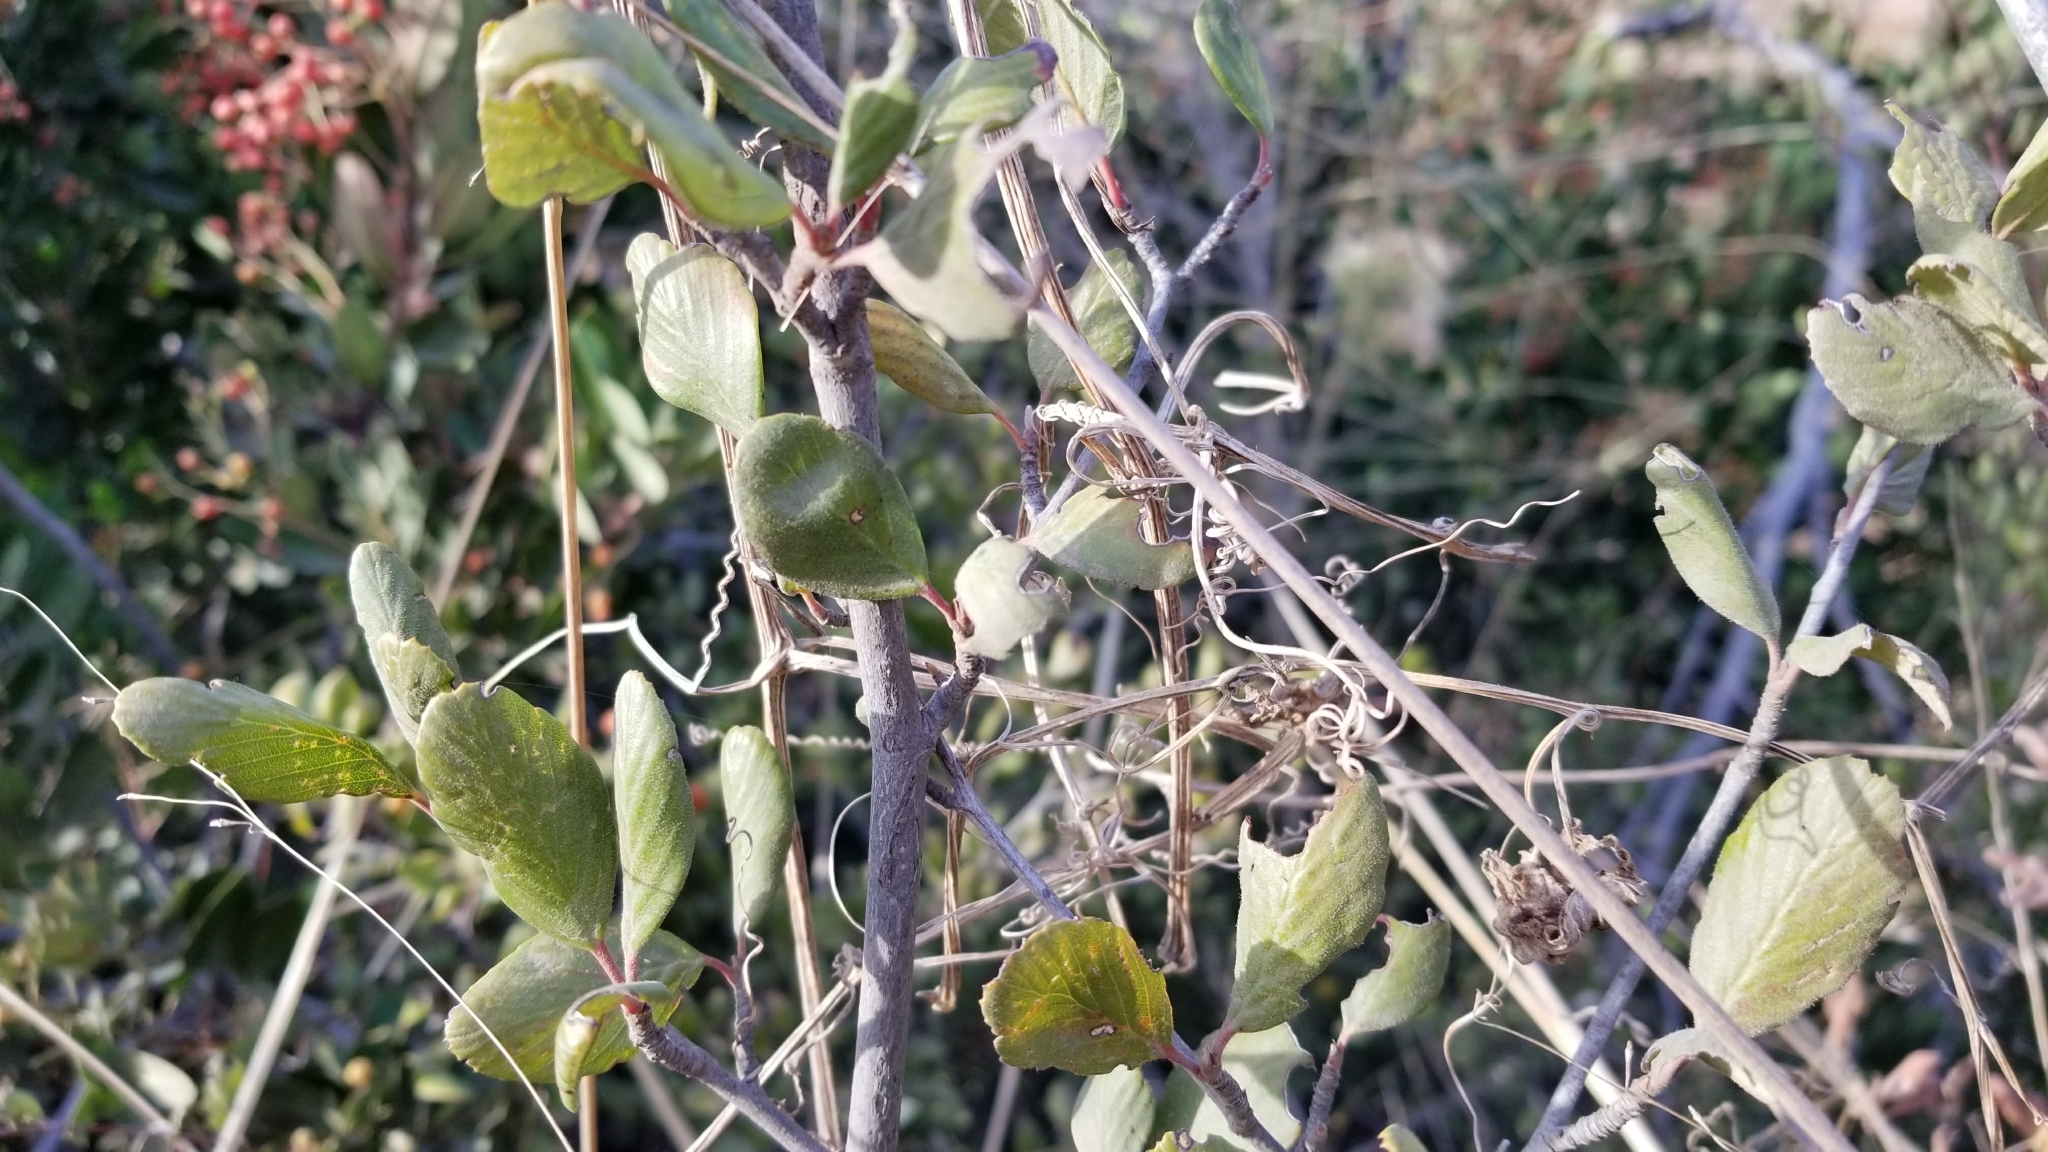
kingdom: Plantae
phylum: Tracheophyta
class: Magnoliopsida
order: Rosales
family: Rosaceae
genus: Cercocarpus
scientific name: Cercocarpus betuloides
